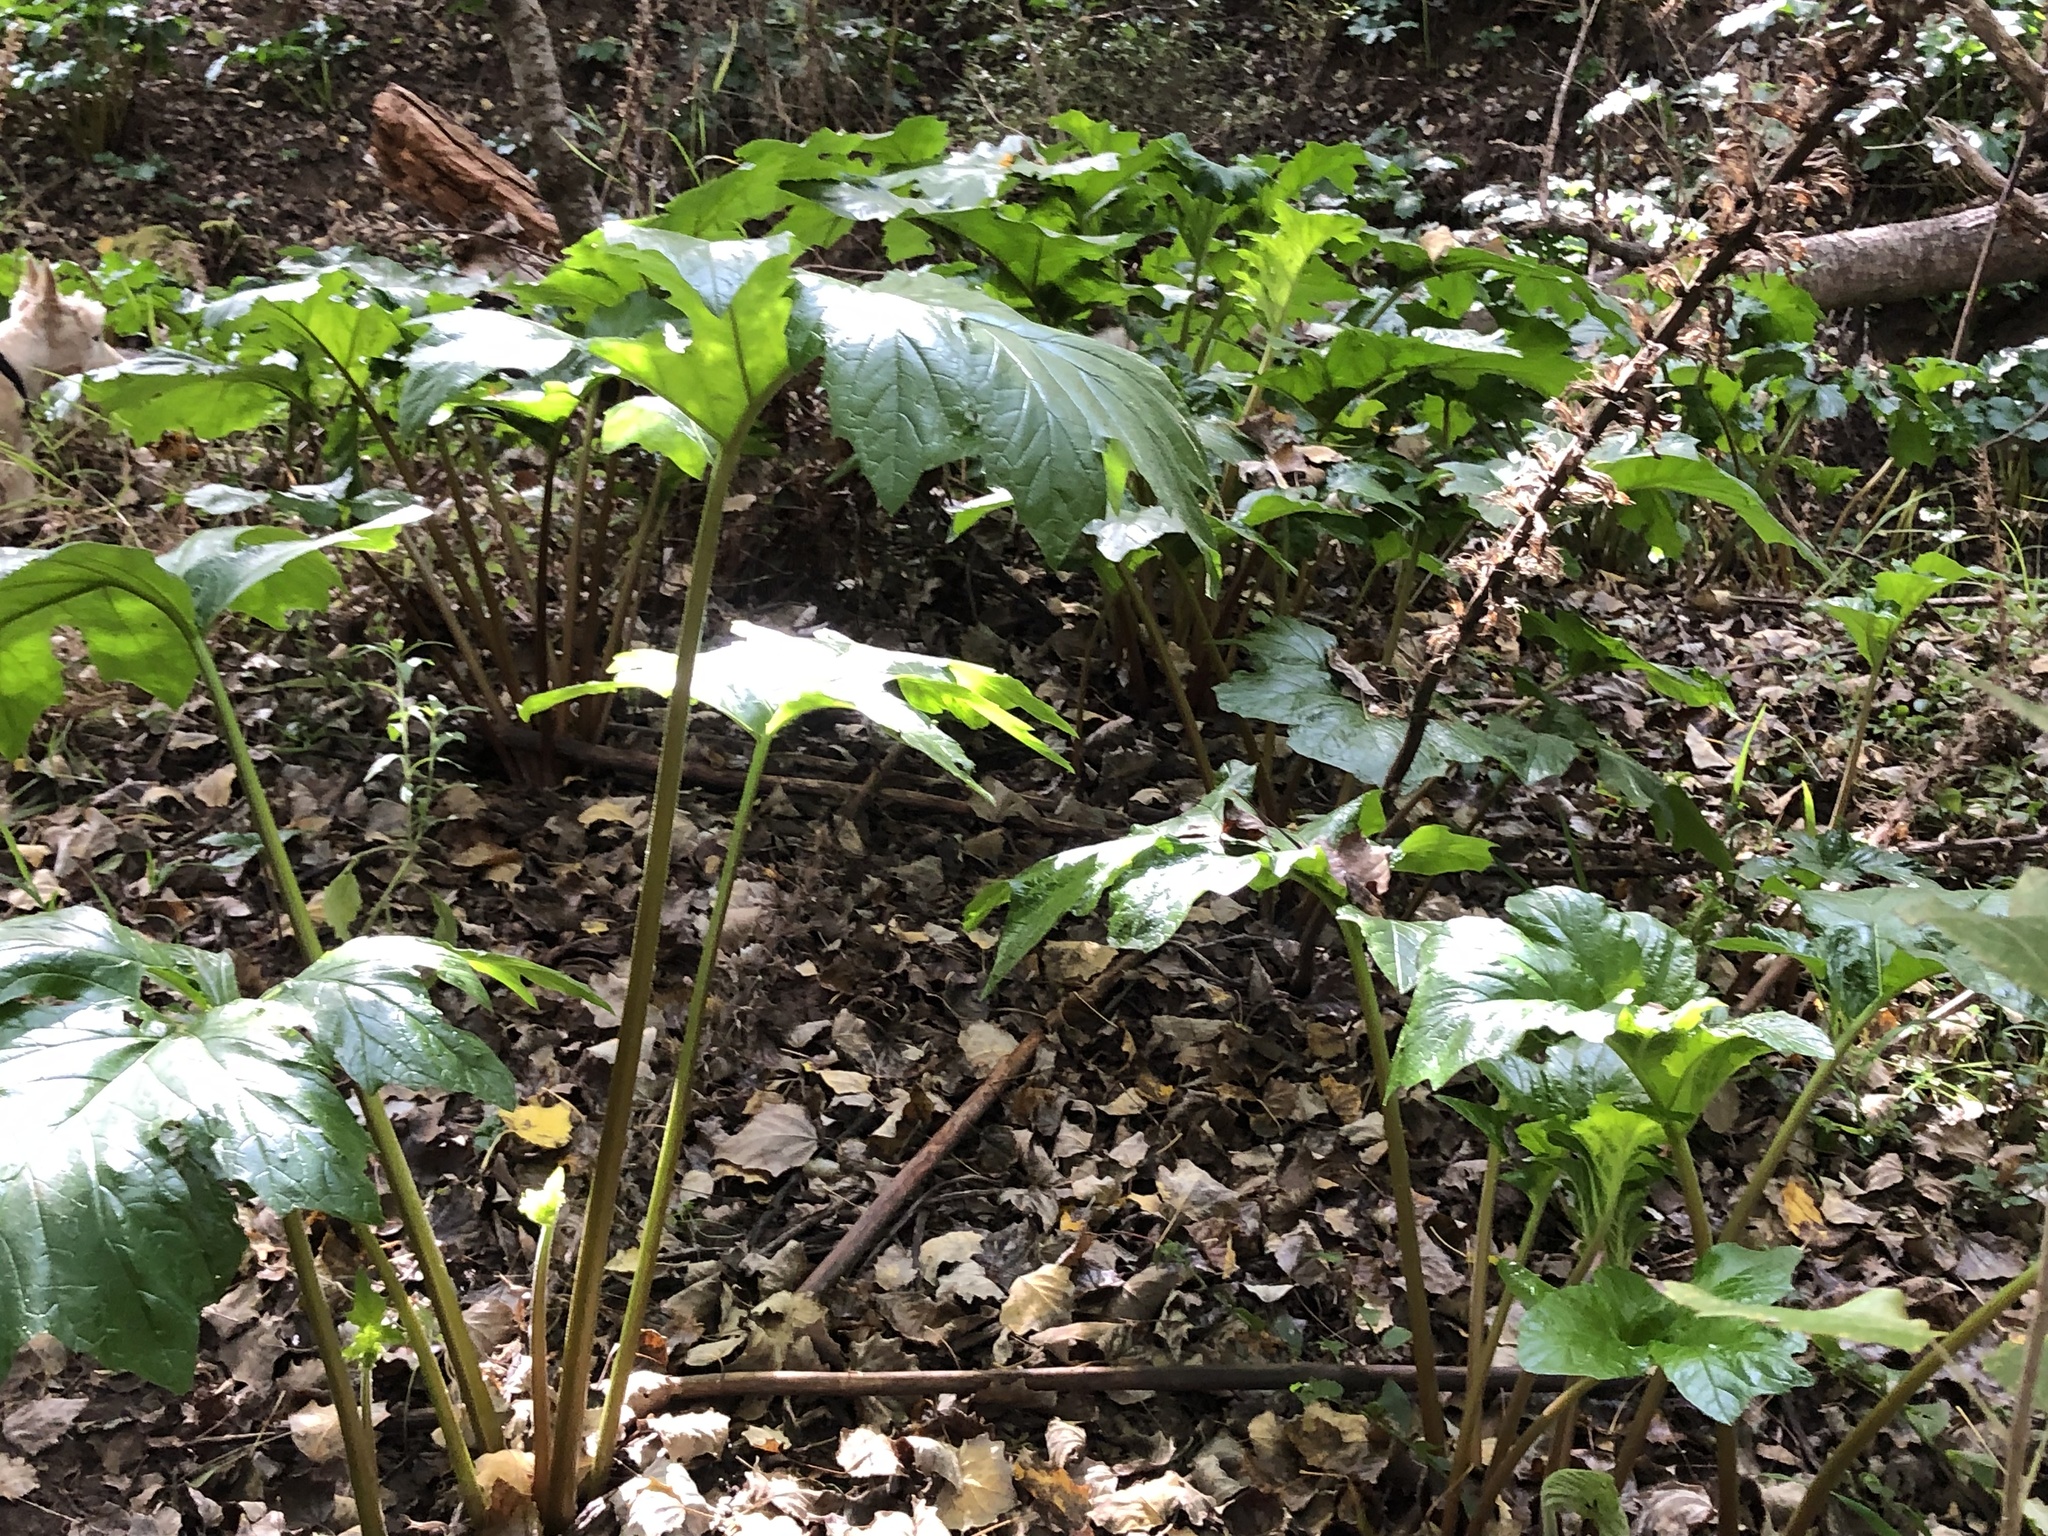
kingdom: Plantae
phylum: Tracheophyta
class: Magnoliopsida
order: Lamiales
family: Acanthaceae
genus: Acanthus
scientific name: Acanthus mollis
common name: Bear's-breech
